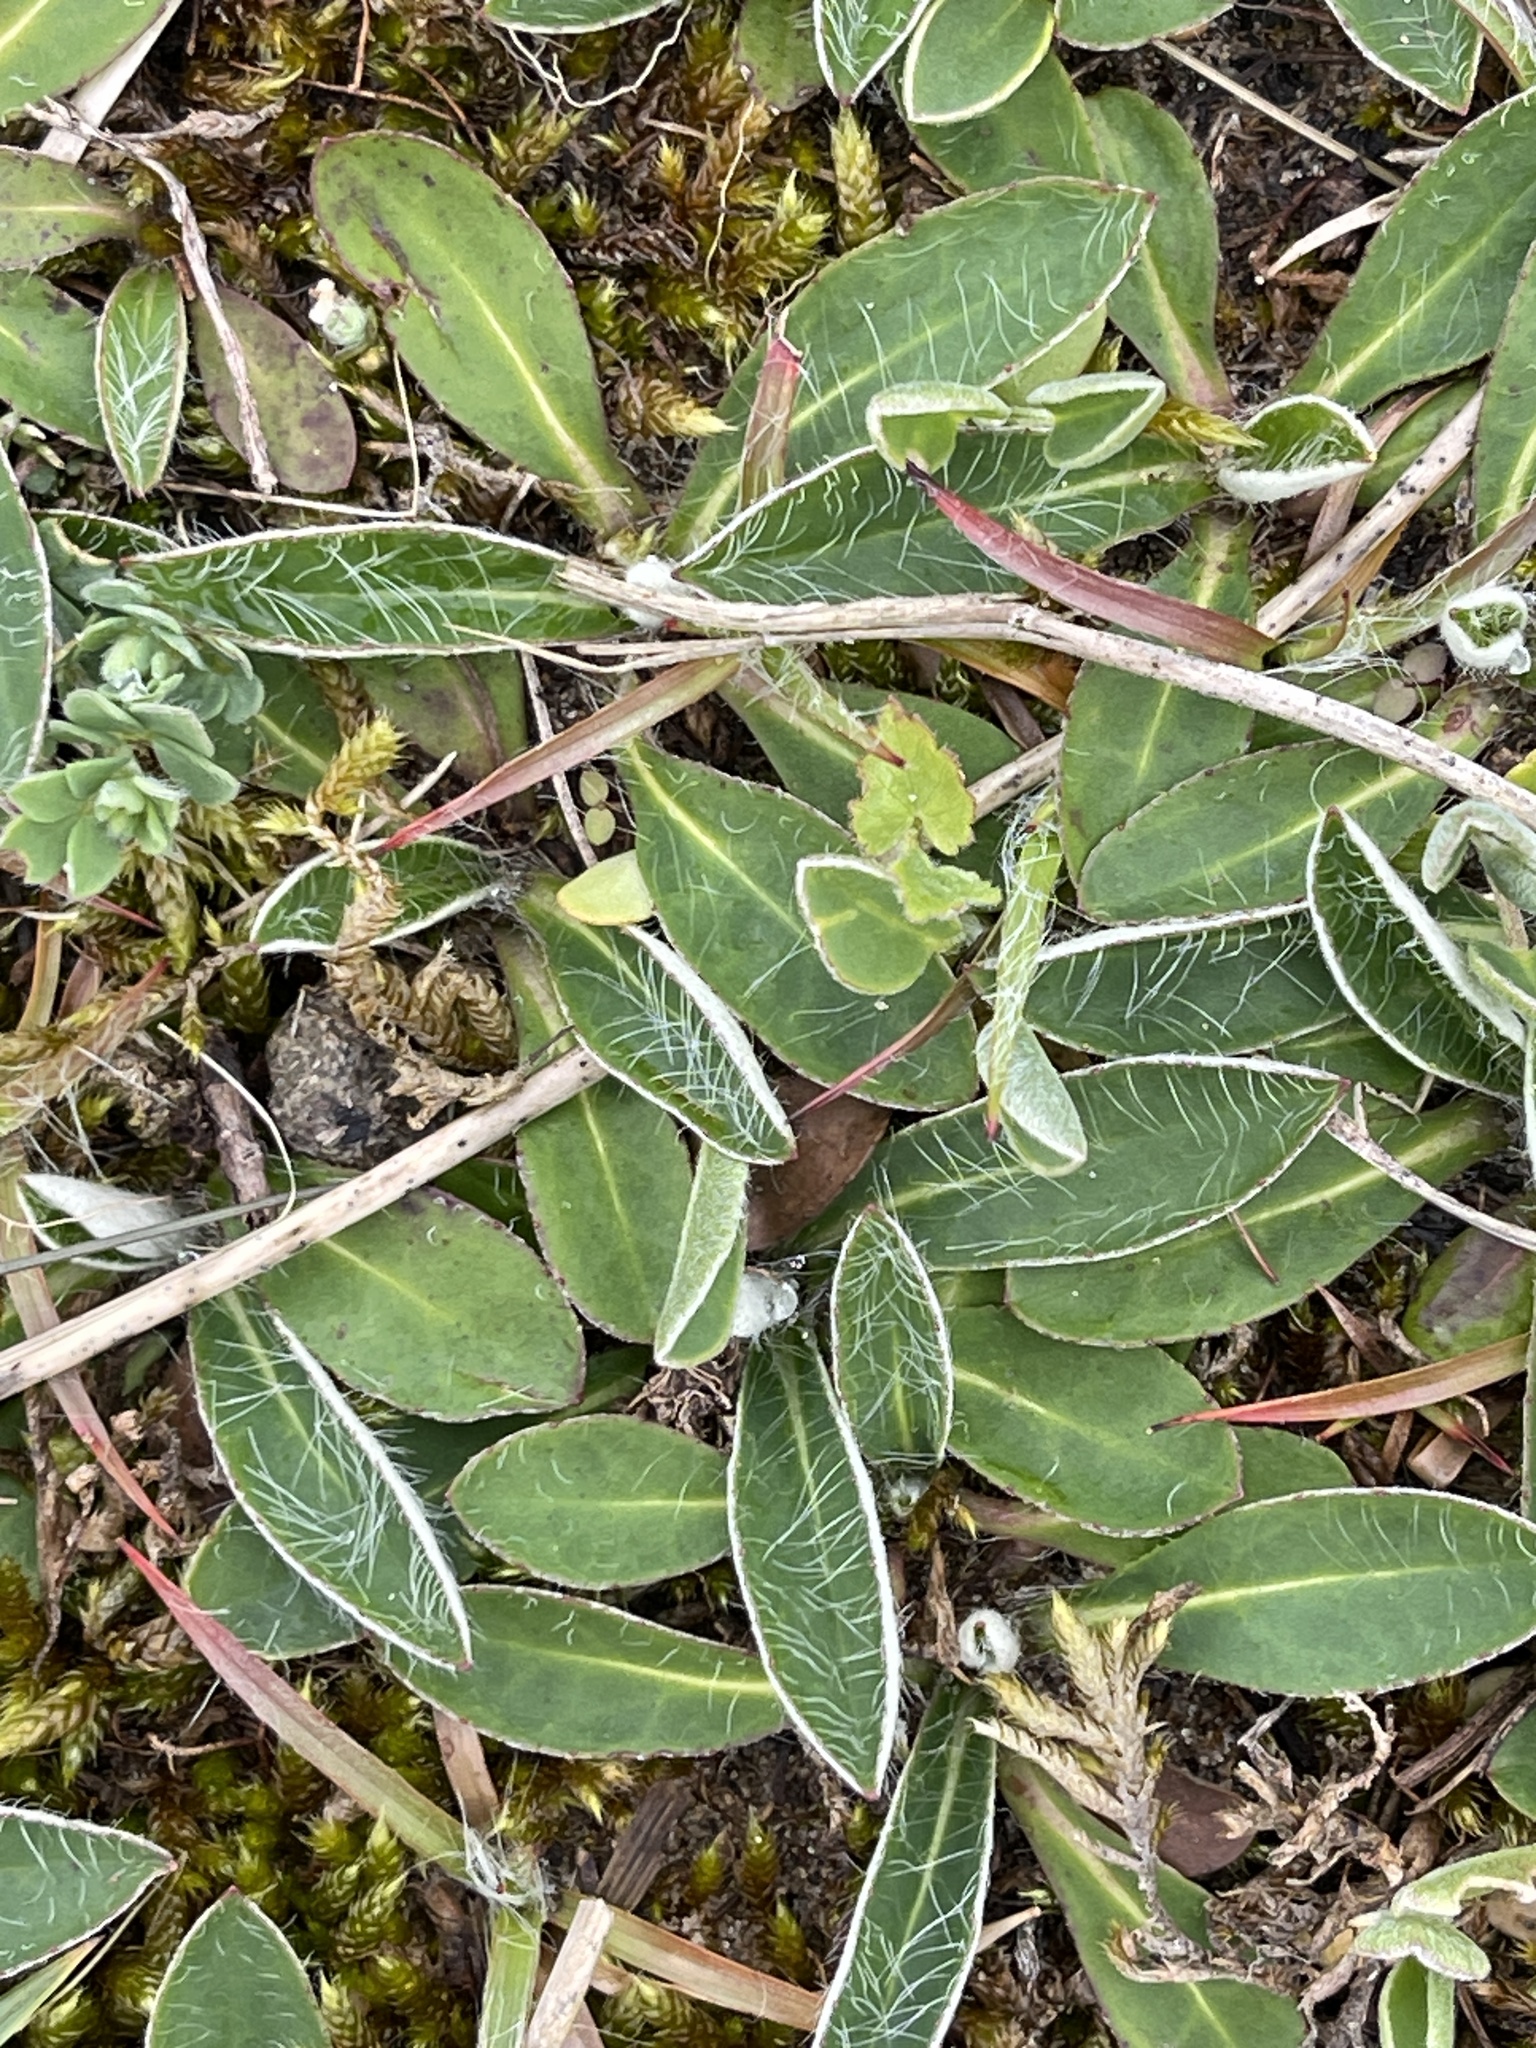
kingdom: Plantae
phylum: Tracheophyta
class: Magnoliopsida
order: Asterales
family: Asteraceae
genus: Pilosella
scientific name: Pilosella officinarum
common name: Mouse-ear hawkweed
